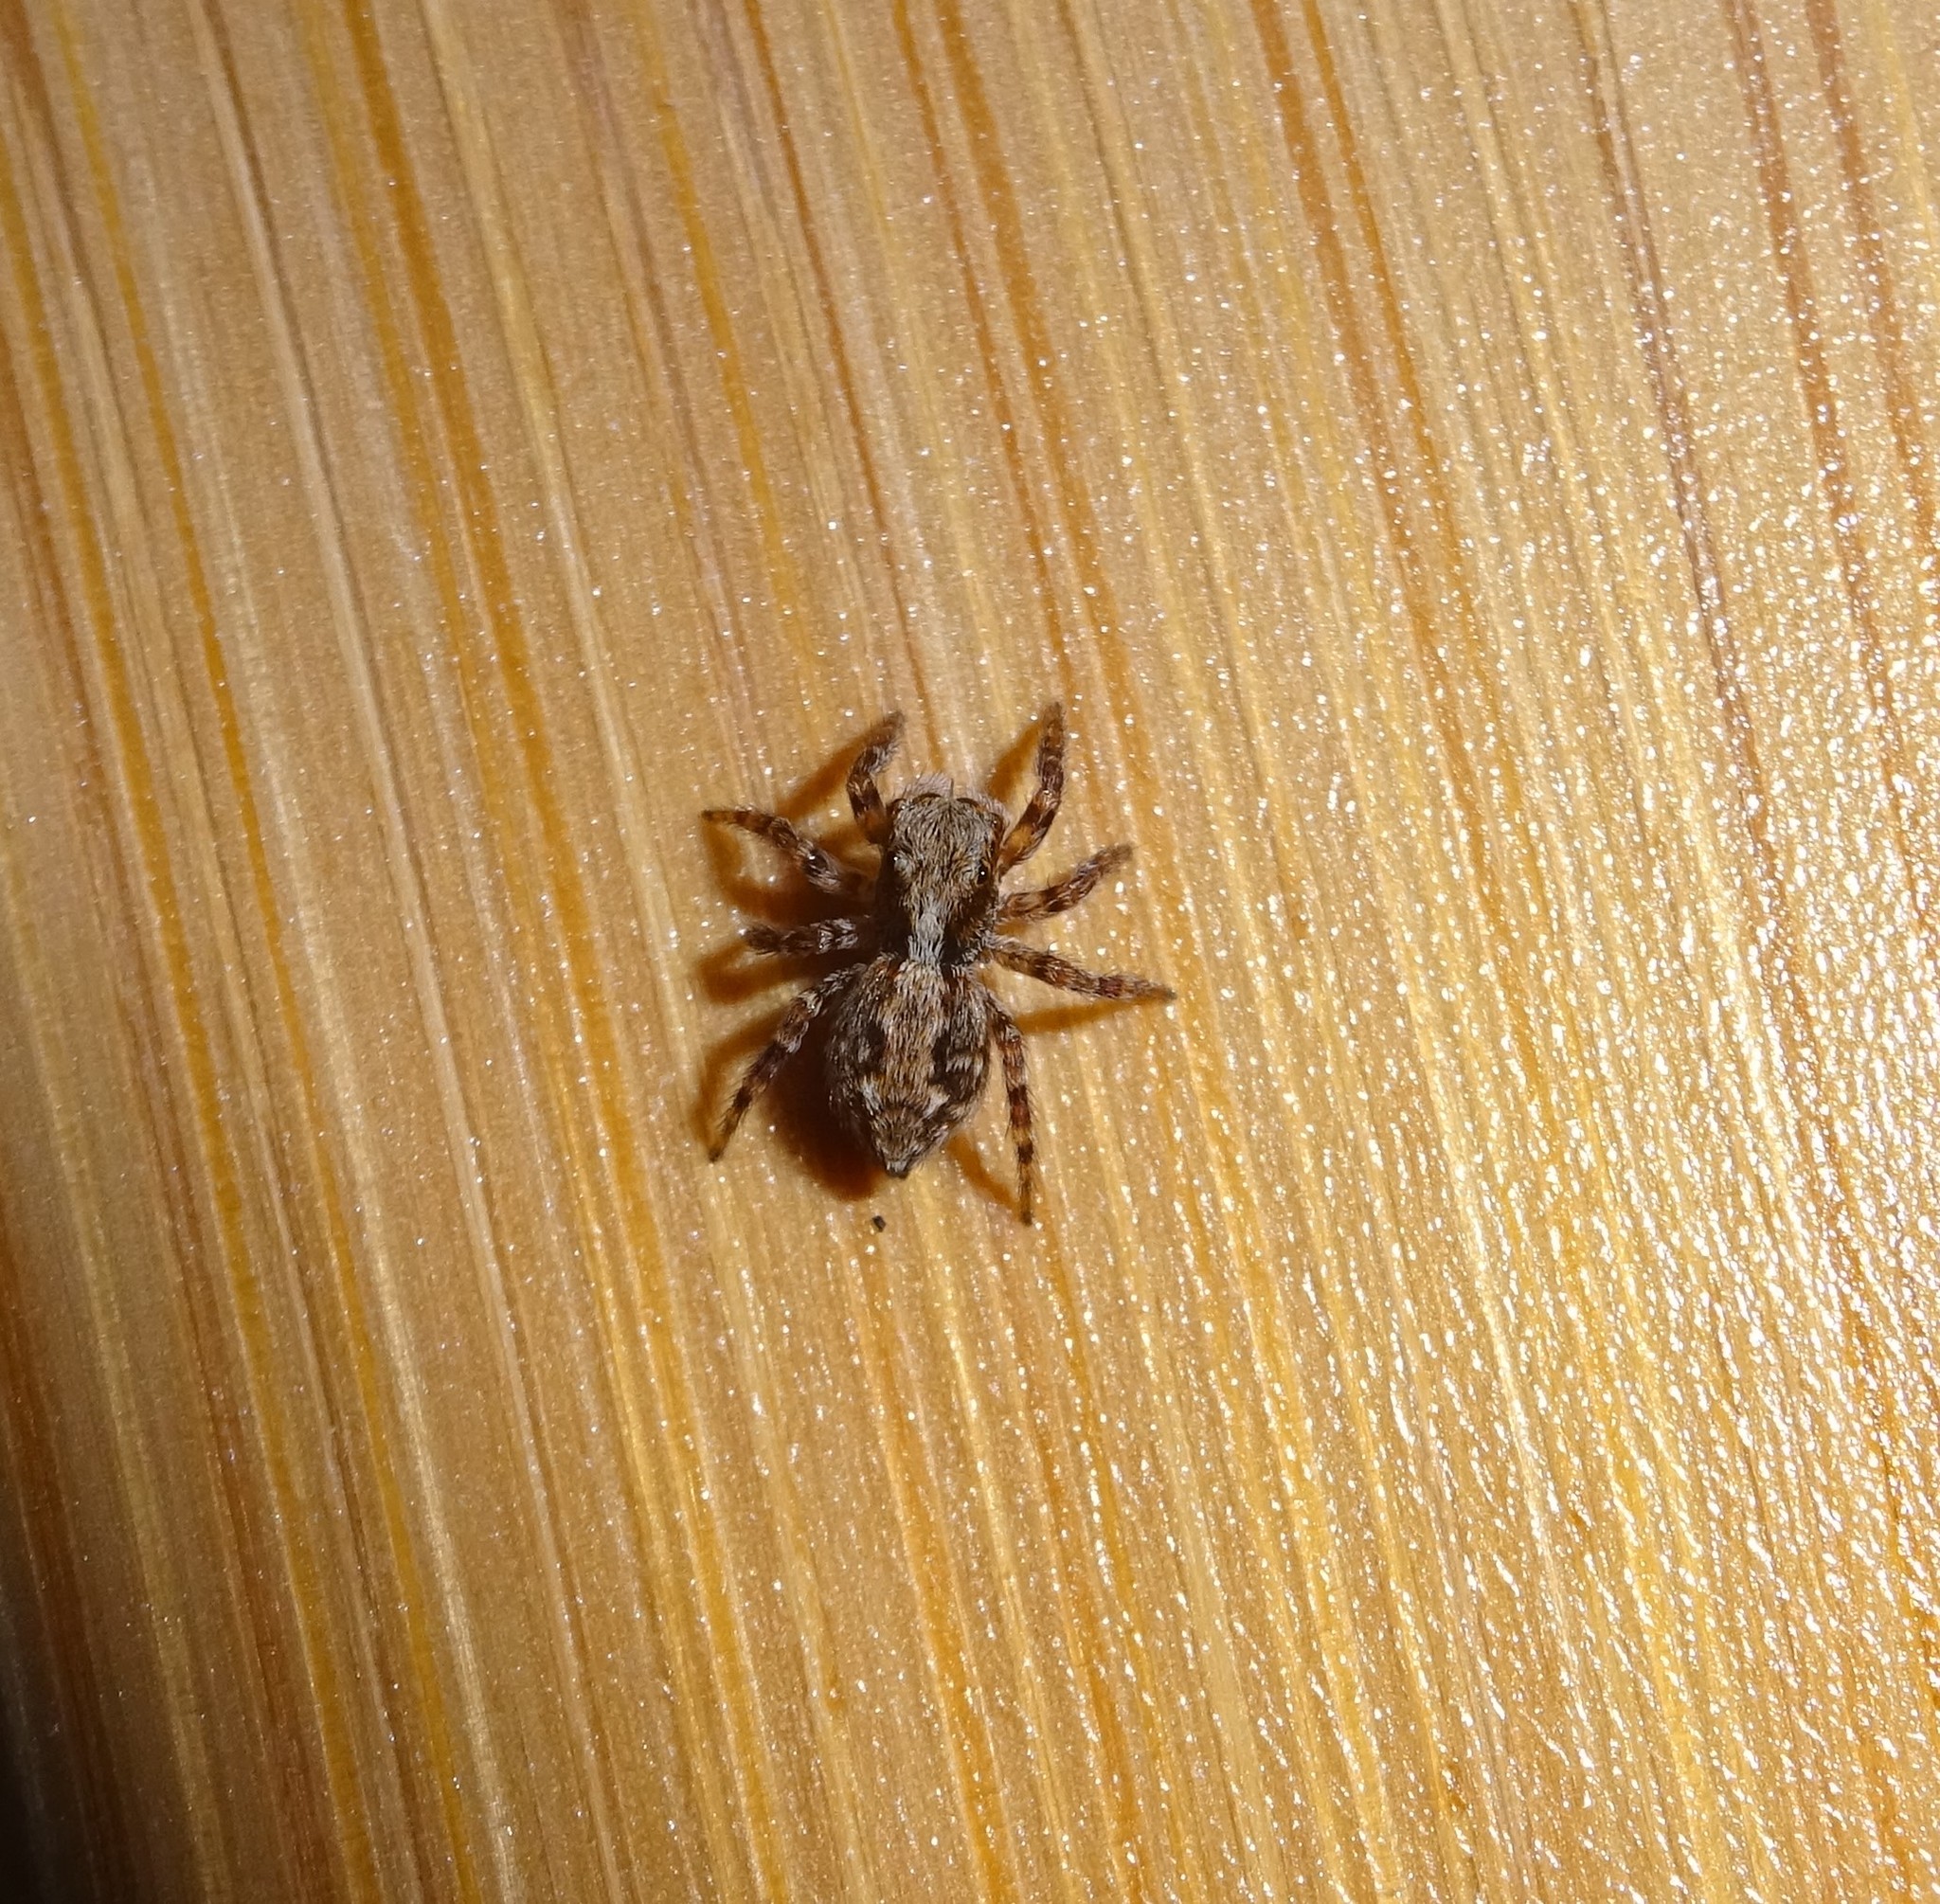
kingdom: Animalia
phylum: Arthropoda
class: Arachnida
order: Araneae
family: Salticidae
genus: Pseudeuophrys
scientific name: Pseudeuophrys lanigera
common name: Jumping spider
